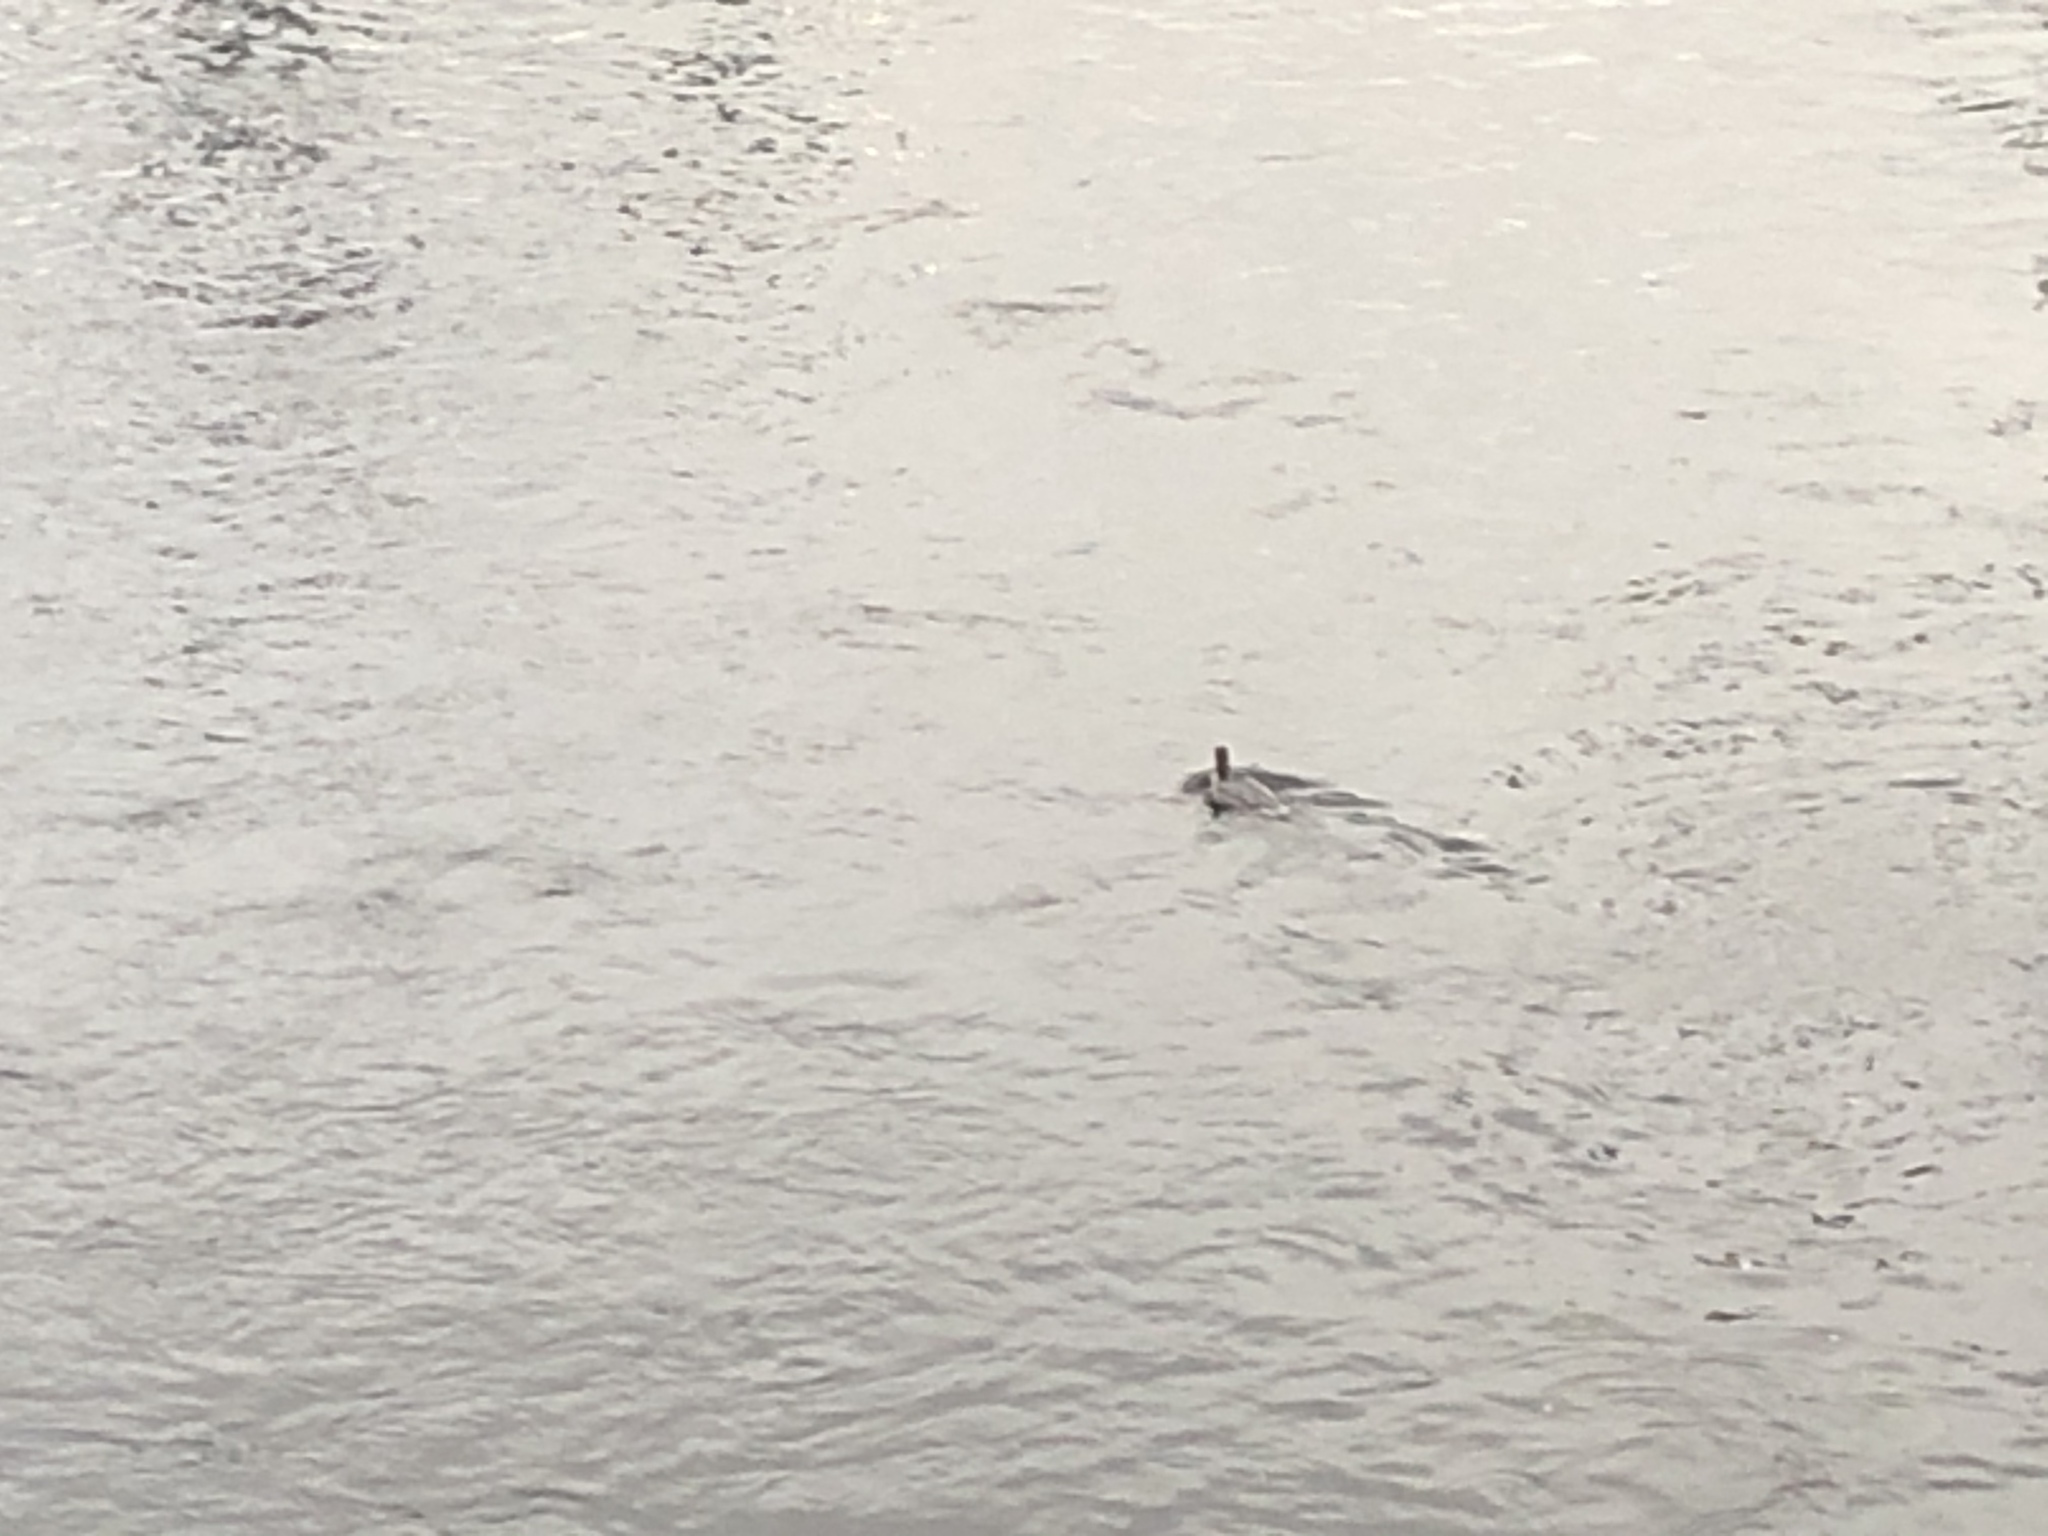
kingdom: Animalia
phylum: Chordata
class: Aves
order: Anseriformes
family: Anatidae
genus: Mergus
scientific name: Mergus merganser
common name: Common merganser
